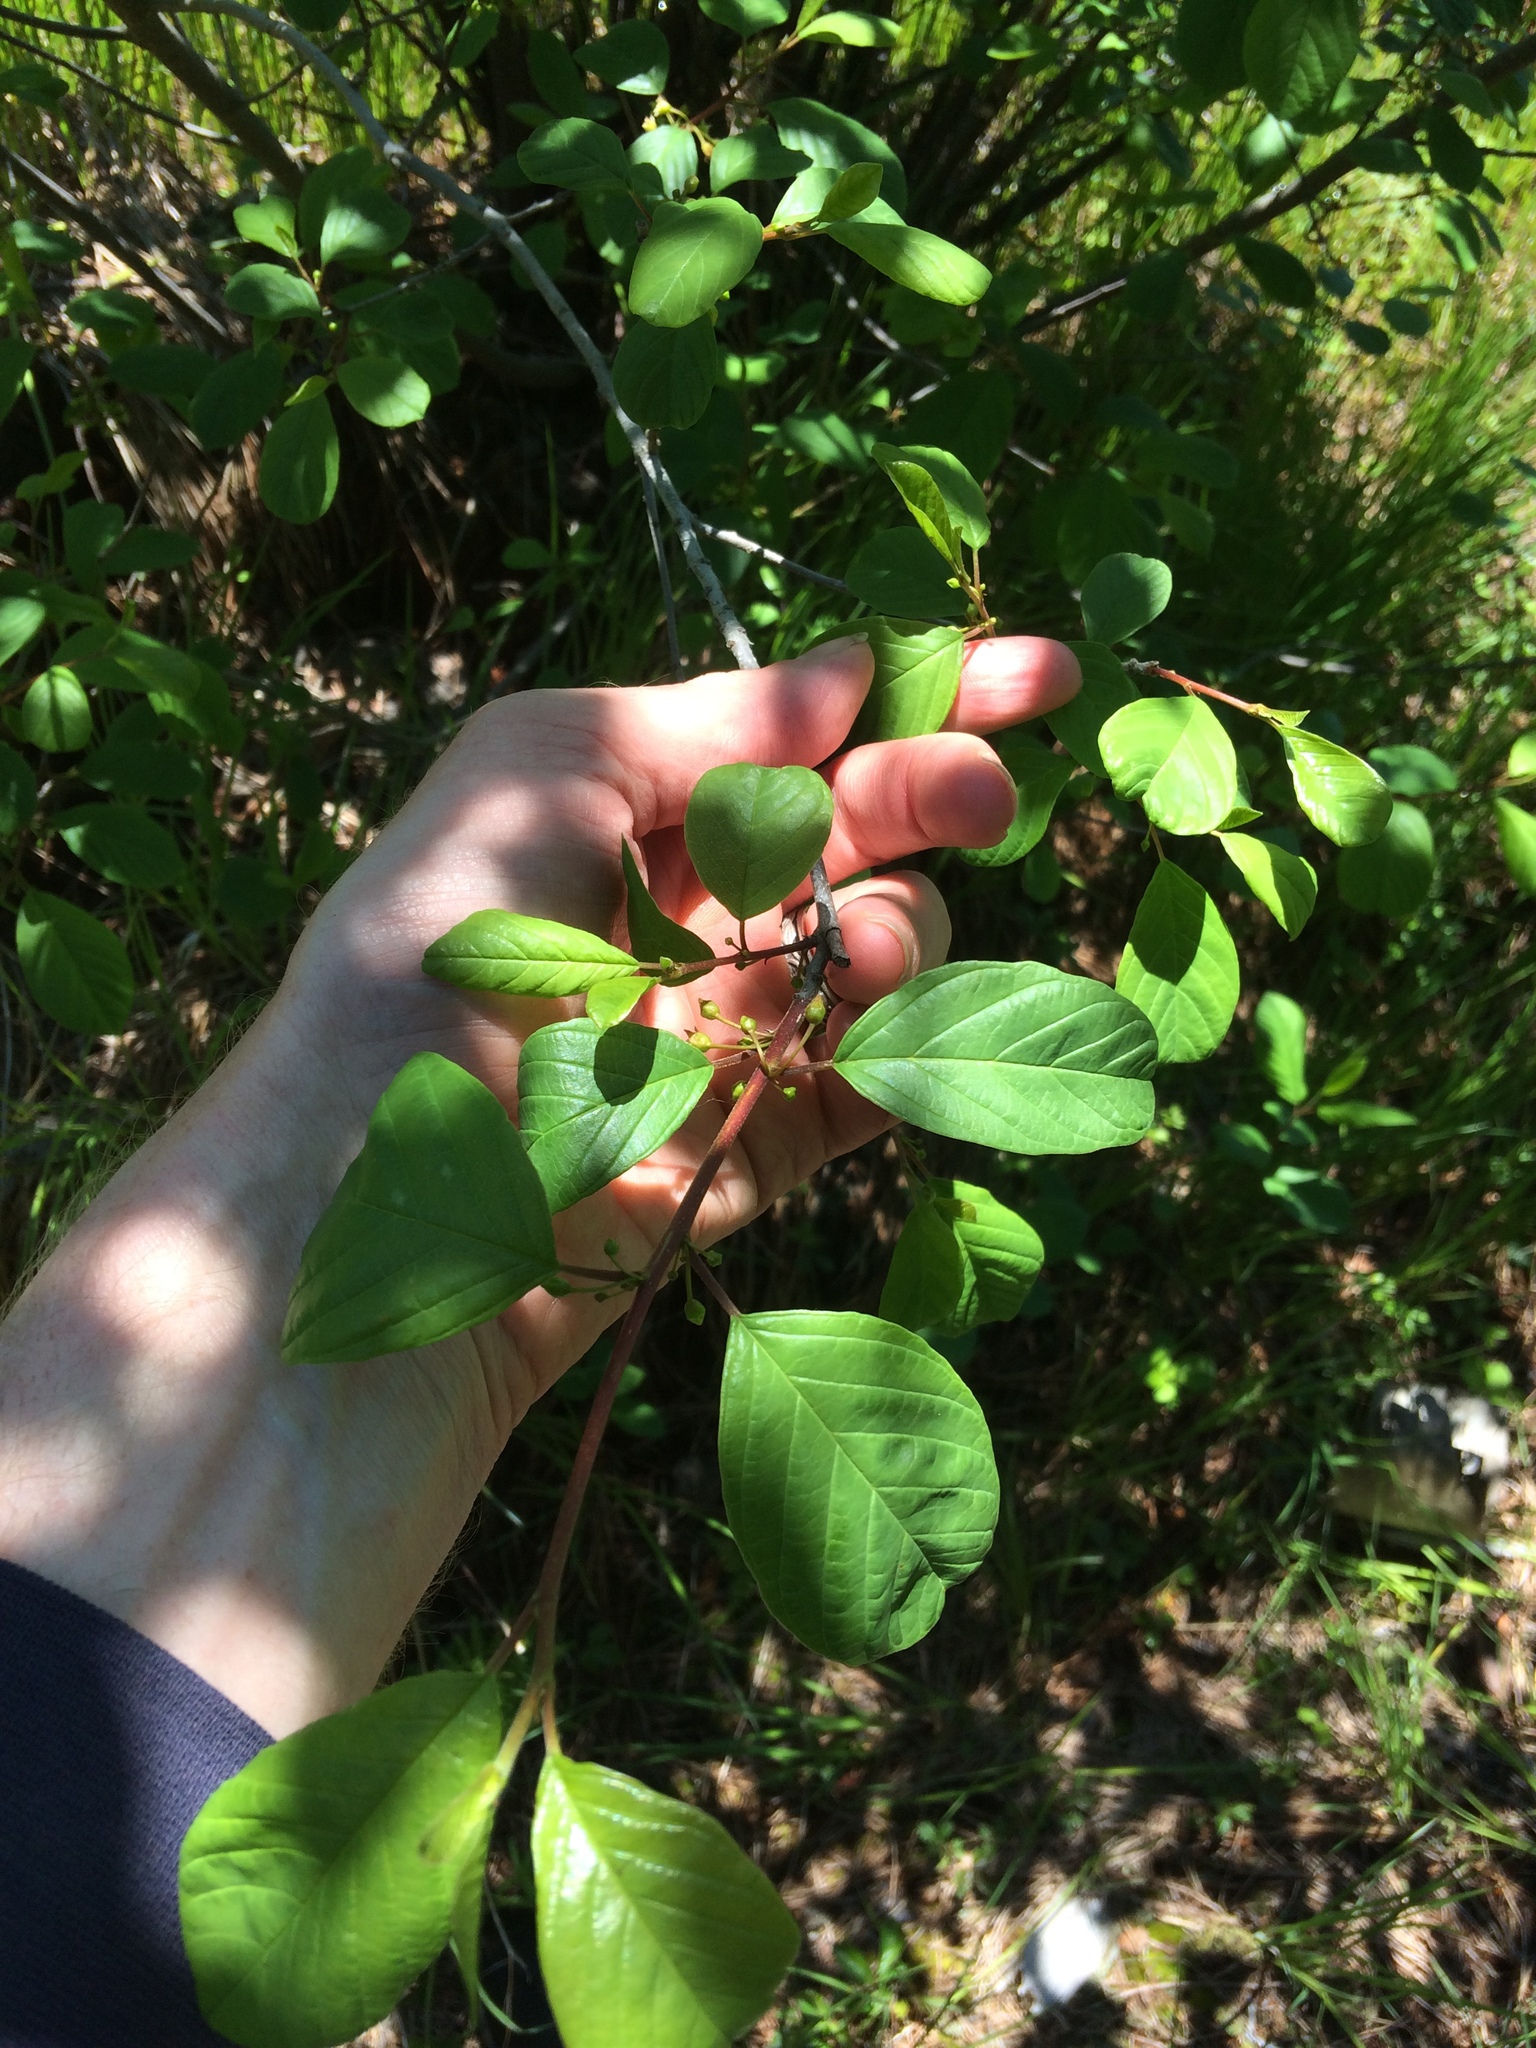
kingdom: Plantae
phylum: Tracheophyta
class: Magnoliopsida
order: Rosales
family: Rhamnaceae
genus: Frangula
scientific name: Frangula alnus
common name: Alder buckthorn
